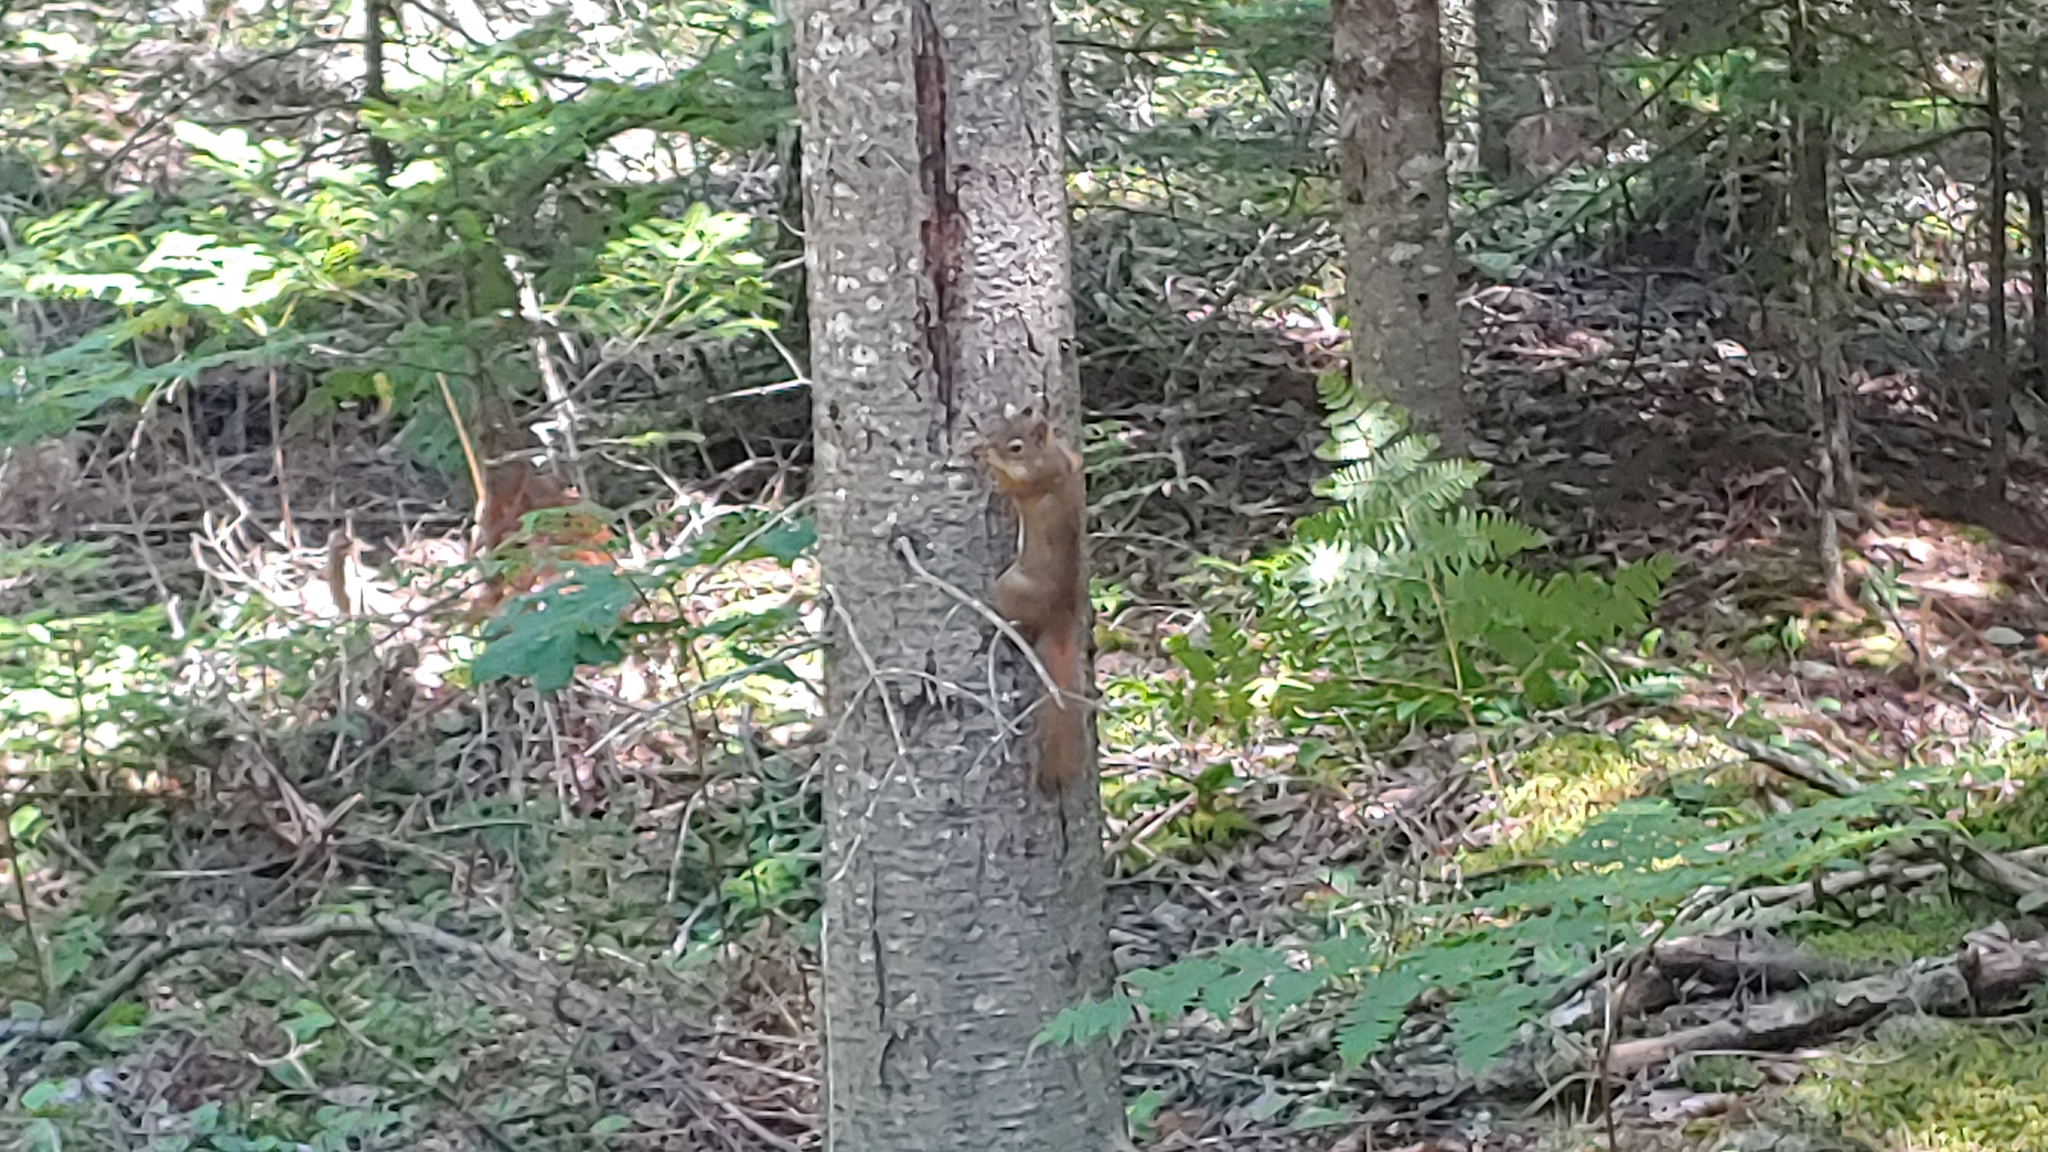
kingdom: Animalia
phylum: Chordata
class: Mammalia
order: Rodentia
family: Sciuridae
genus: Tamiasciurus
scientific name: Tamiasciurus hudsonicus
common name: Red squirrel
